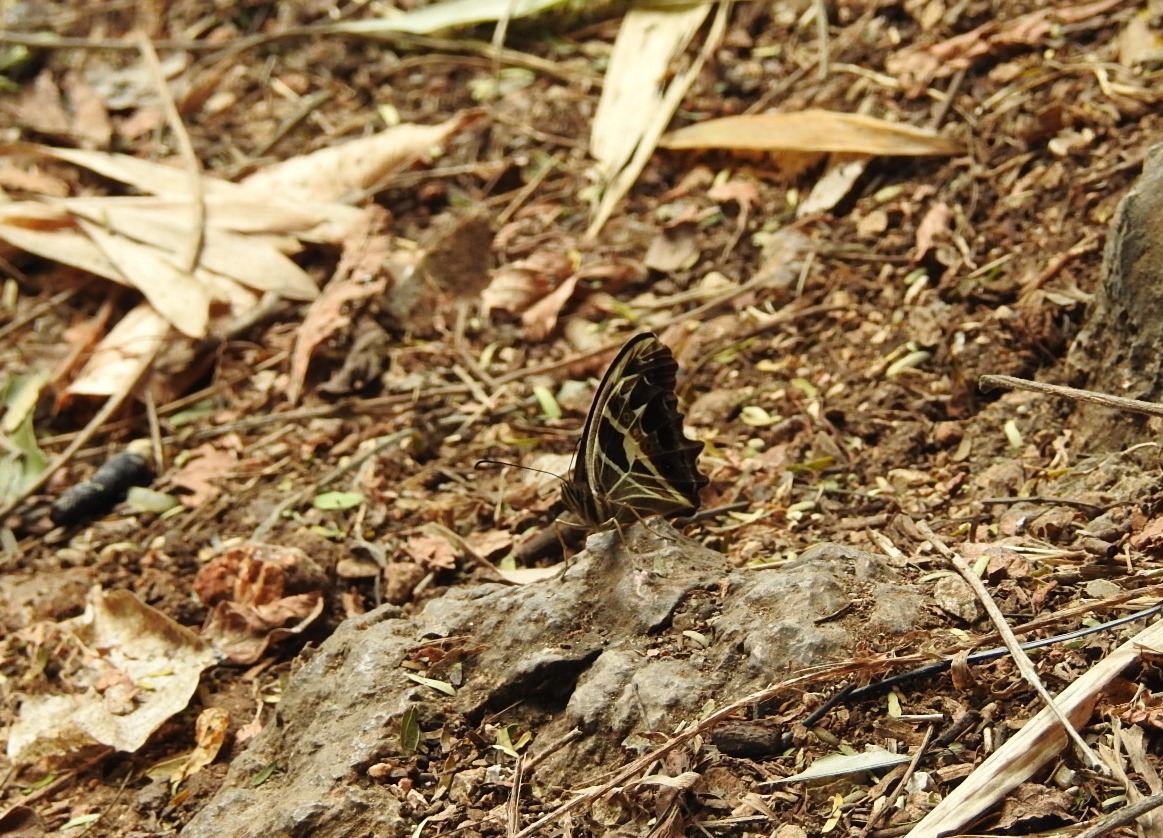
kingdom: Animalia
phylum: Arthropoda
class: Insecta
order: Lepidoptera
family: Nymphalidae
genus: Oxeoschistus
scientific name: Oxeoschistus tauropolis
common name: Starred oxeo
